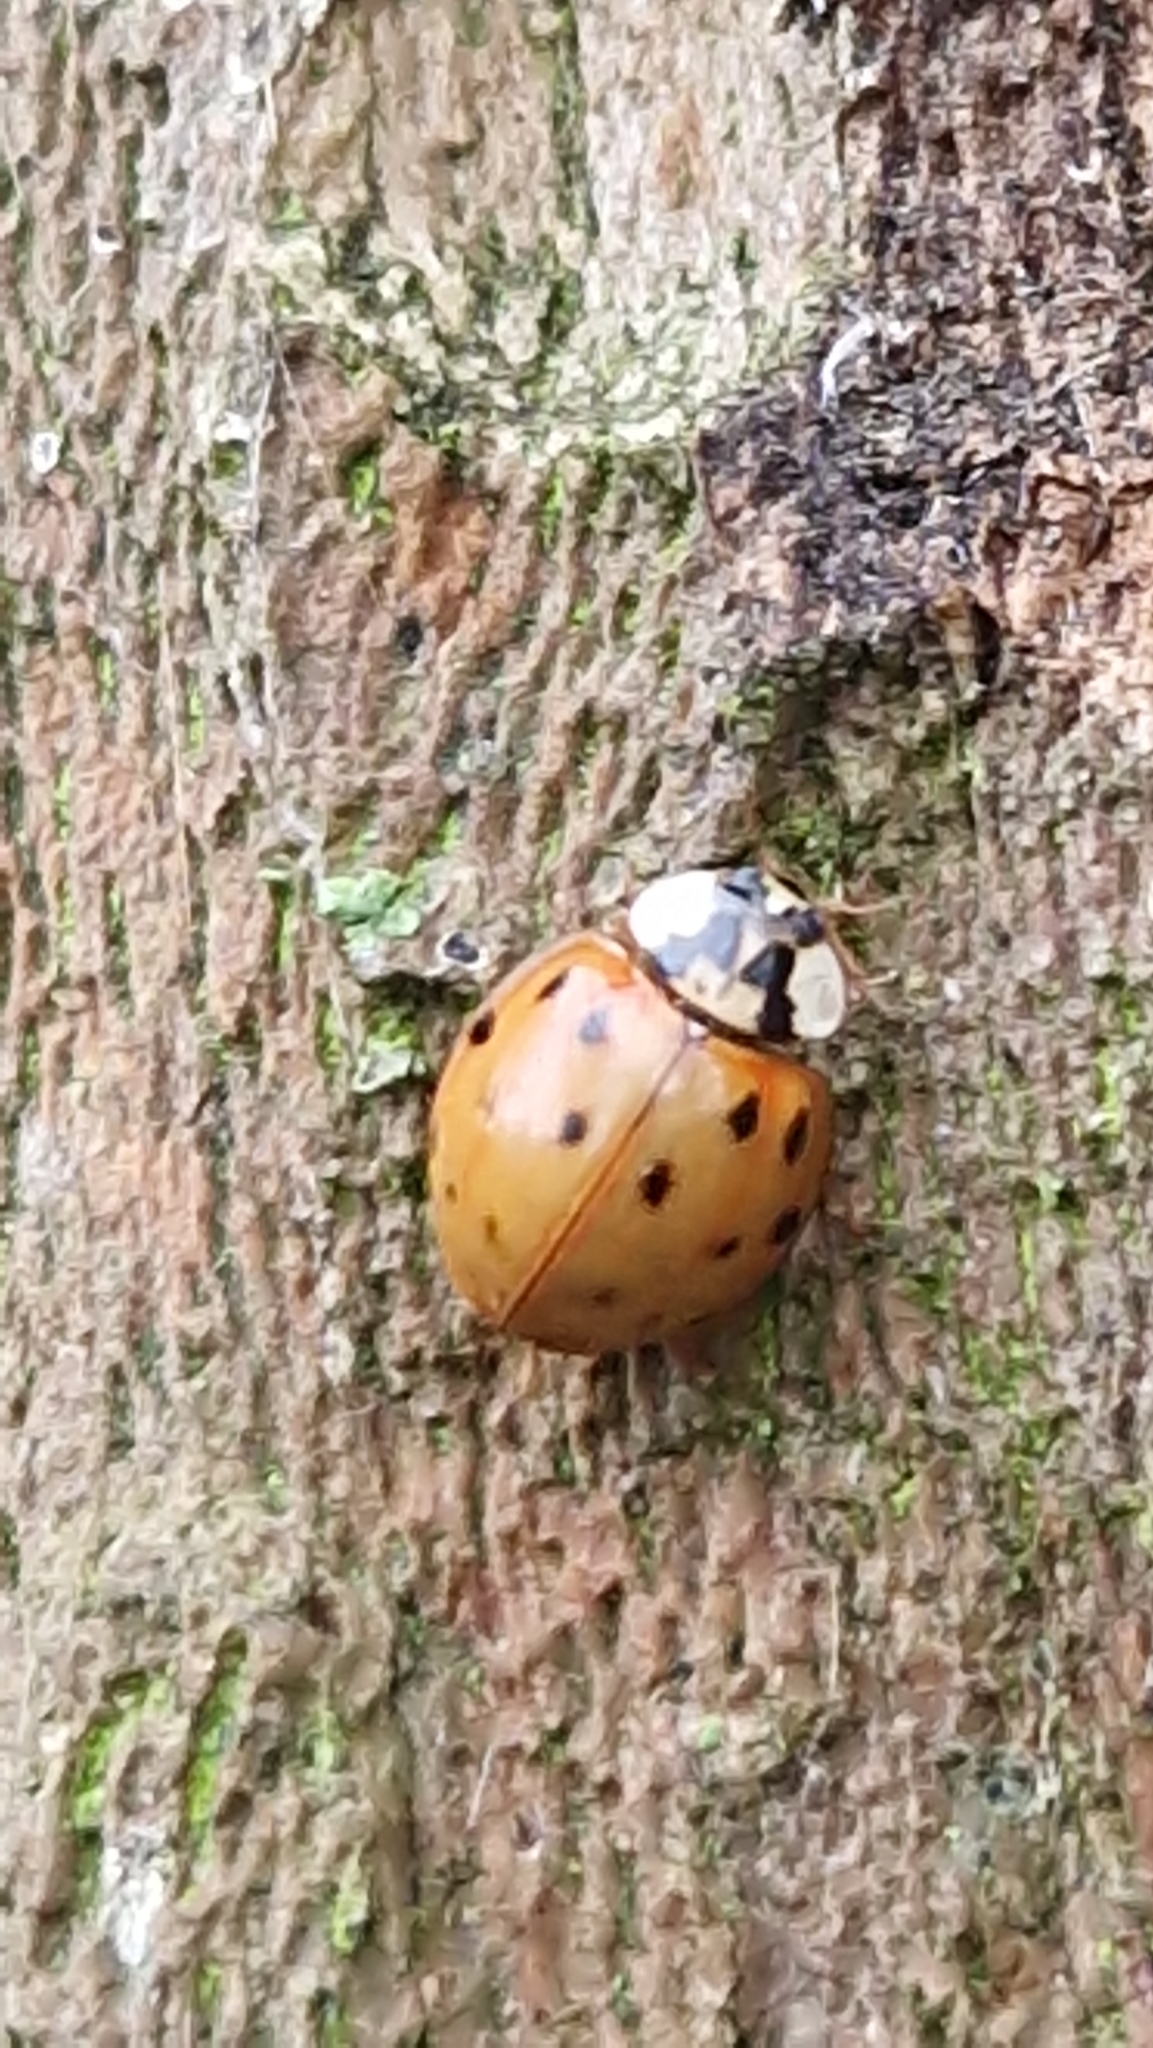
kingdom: Animalia
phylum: Arthropoda
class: Insecta
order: Coleoptera
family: Coccinellidae
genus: Harmonia
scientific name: Harmonia axyridis
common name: Harlequin ladybird
